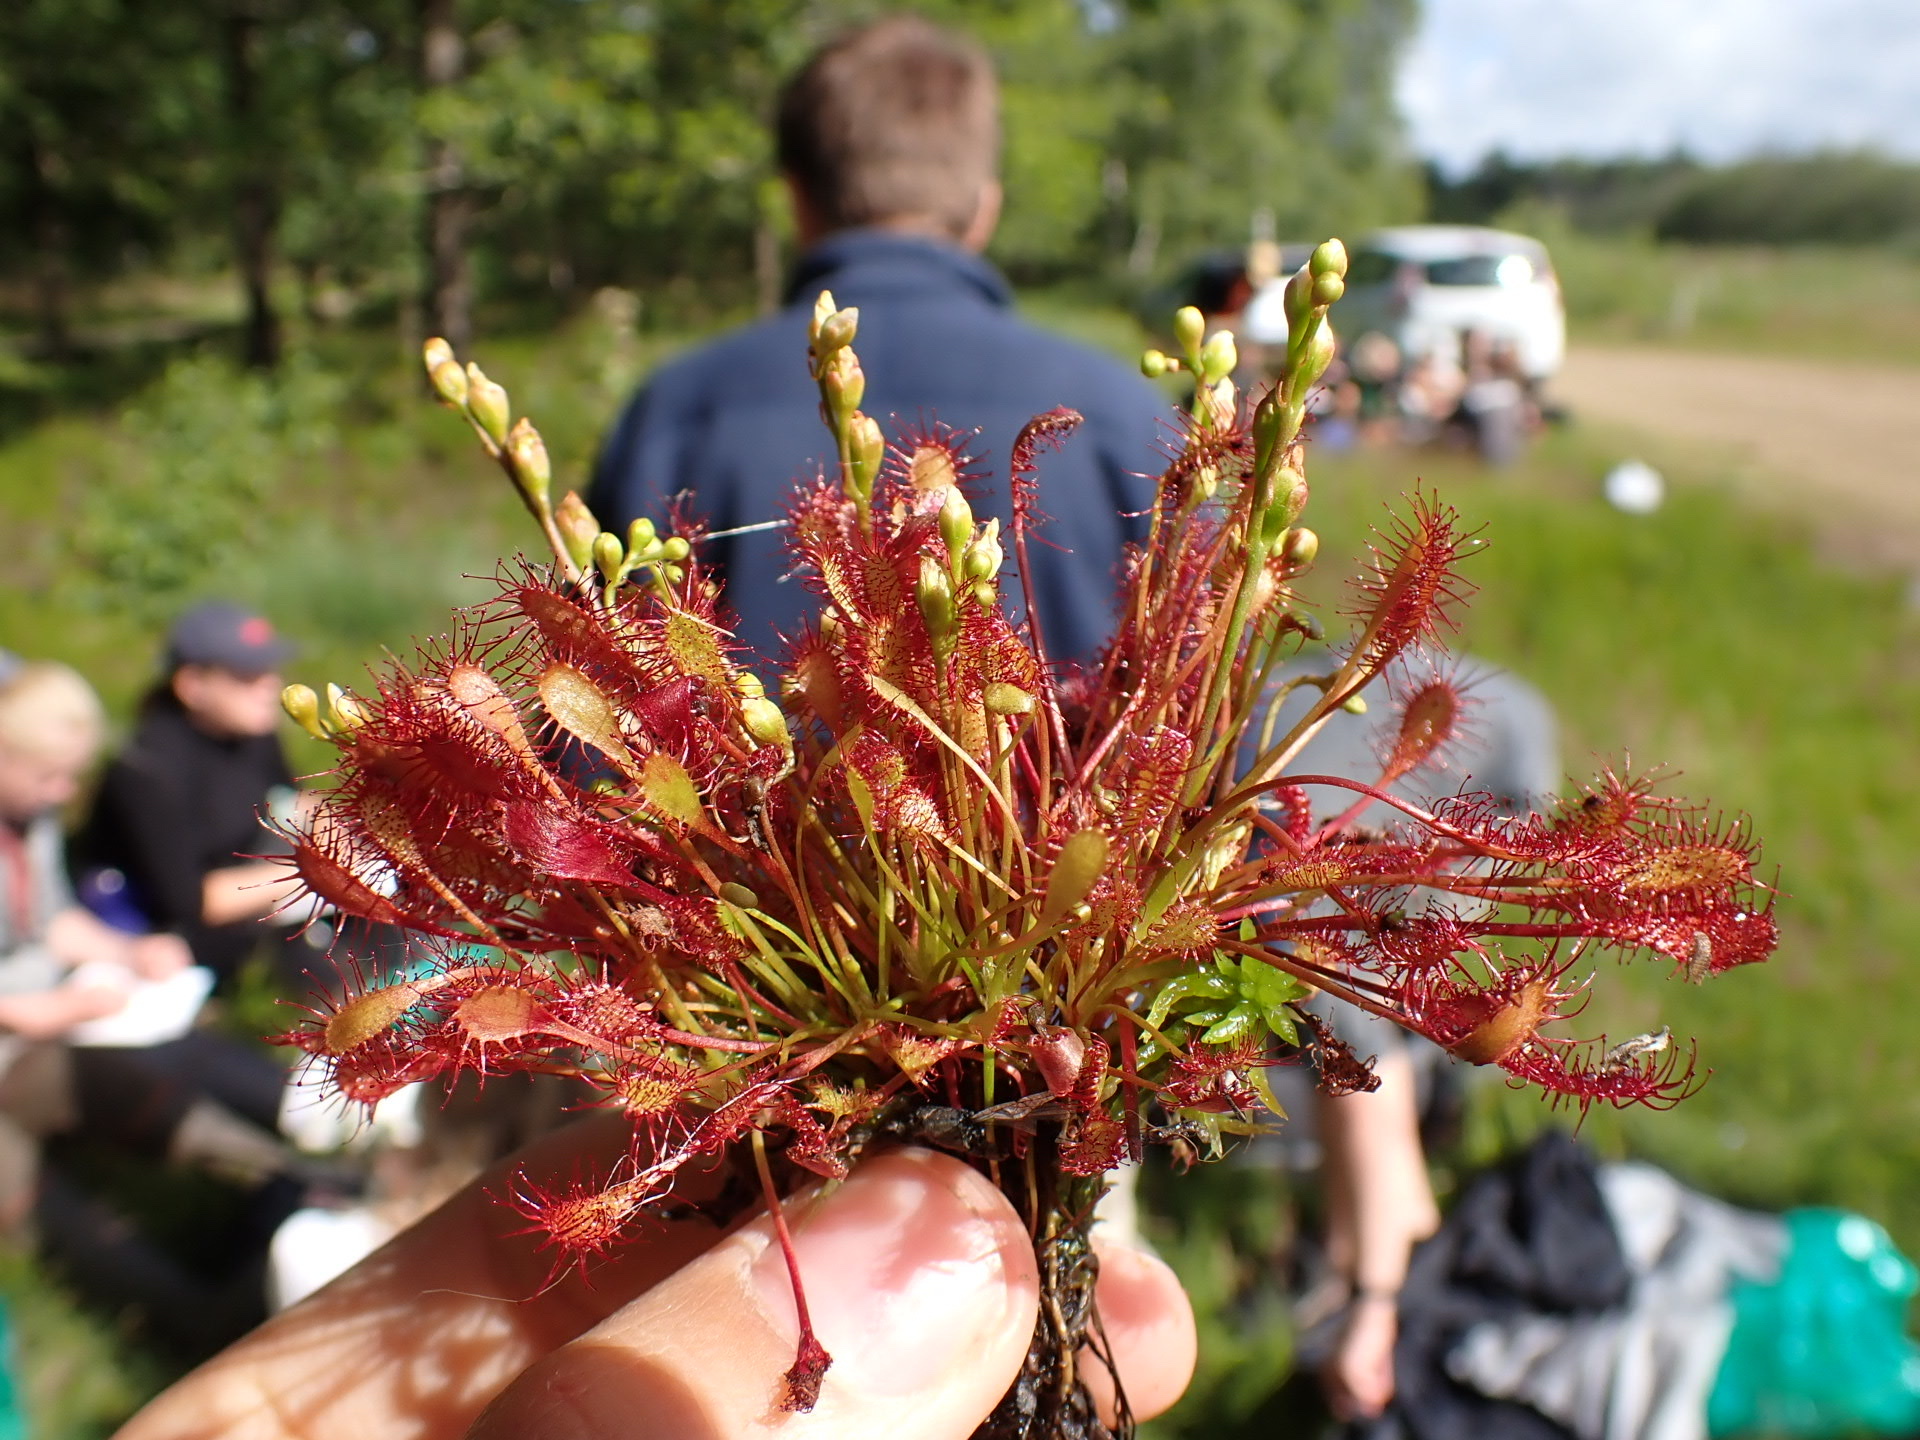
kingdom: Plantae
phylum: Tracheophyta
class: Magnoliopsida
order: Caryophyllales
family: Droseraceae
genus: Drosera
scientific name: Drosera intermedia
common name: Oblong-leaved sundew
